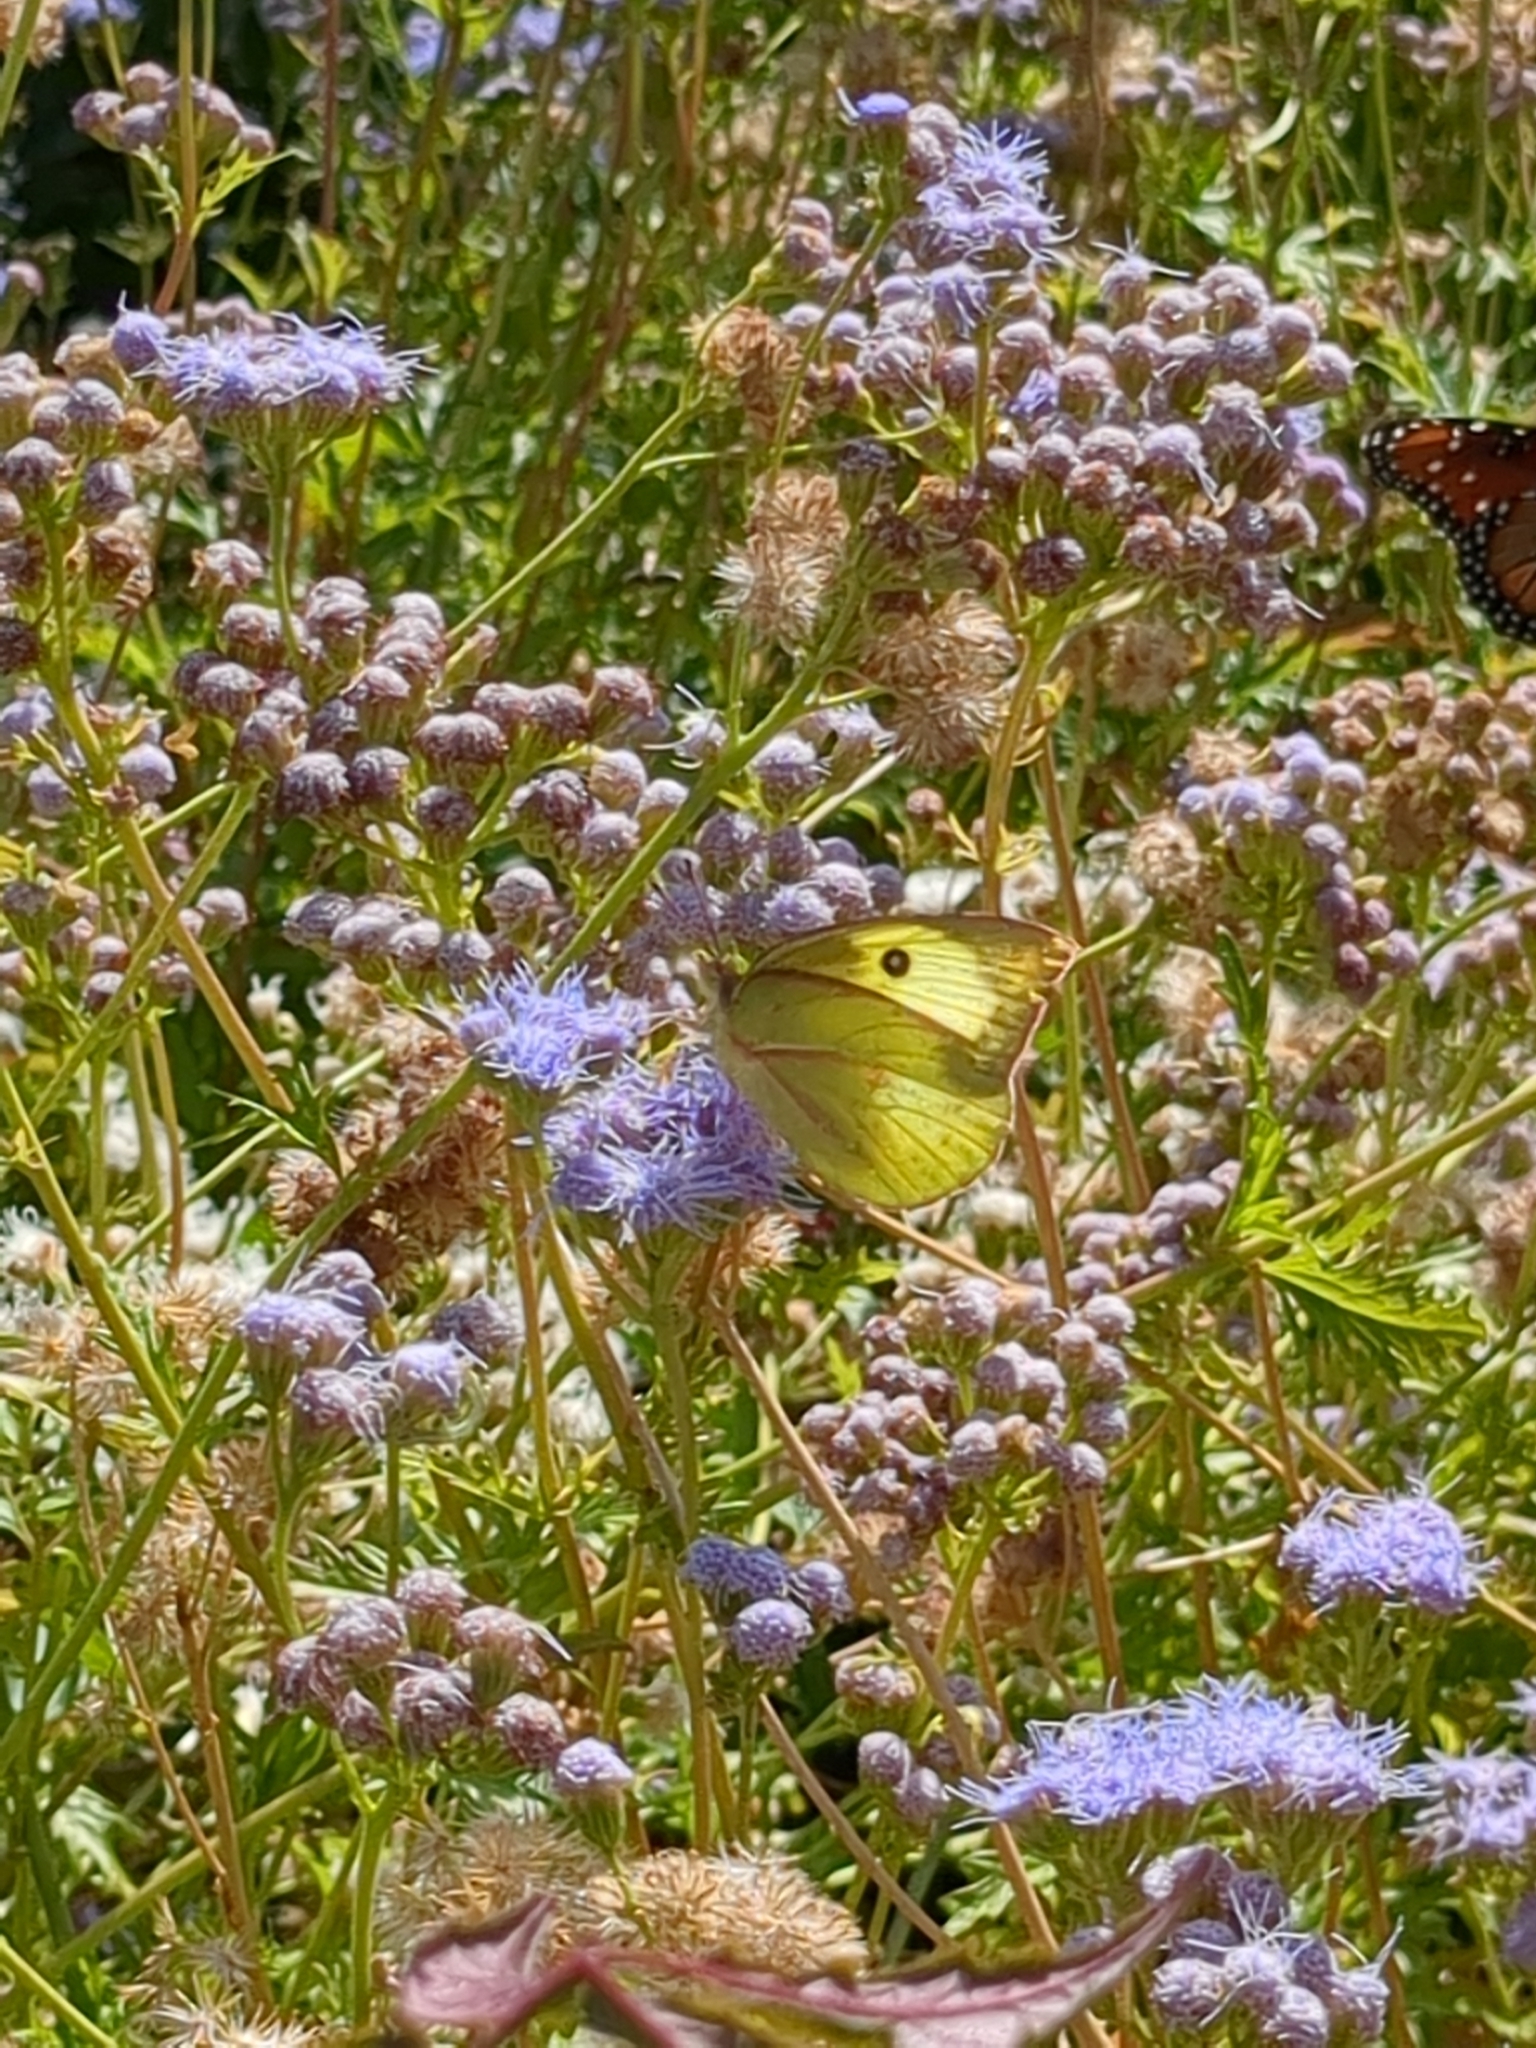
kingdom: Animalia
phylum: Arthropoda
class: Insecta
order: Lepidoptera
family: Pieridae
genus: Zerene
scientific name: Zerene cesonia
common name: Southern dogface
